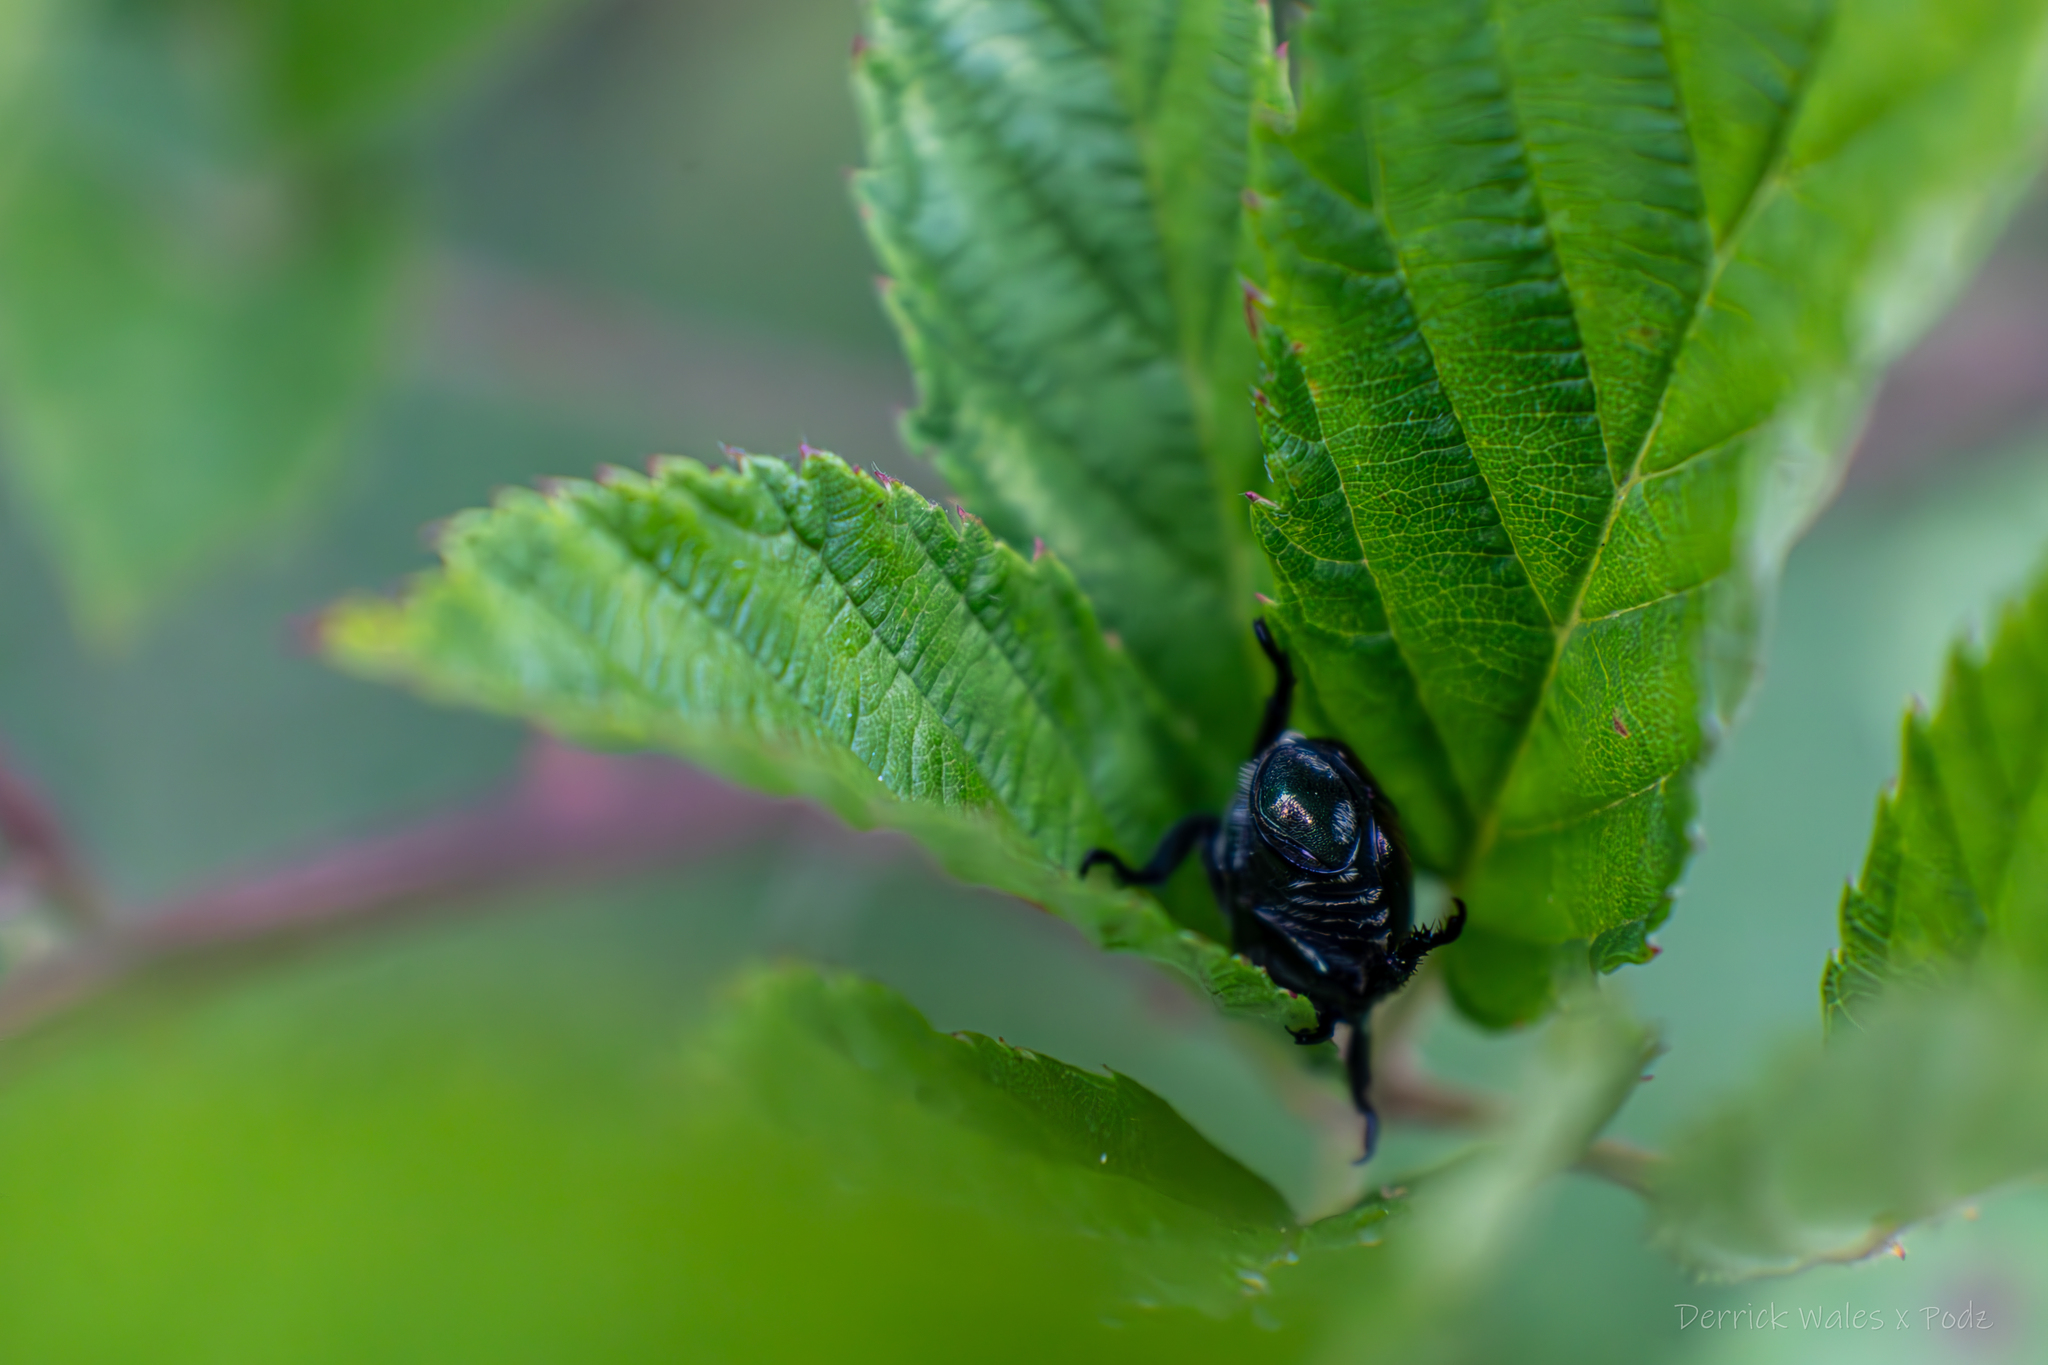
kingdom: Animalia
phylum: Arthropoda
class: Insecta
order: Coleoptera
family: Scarabaeidae
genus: Popillia
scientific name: Popillia japonica
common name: Japanese beetle
